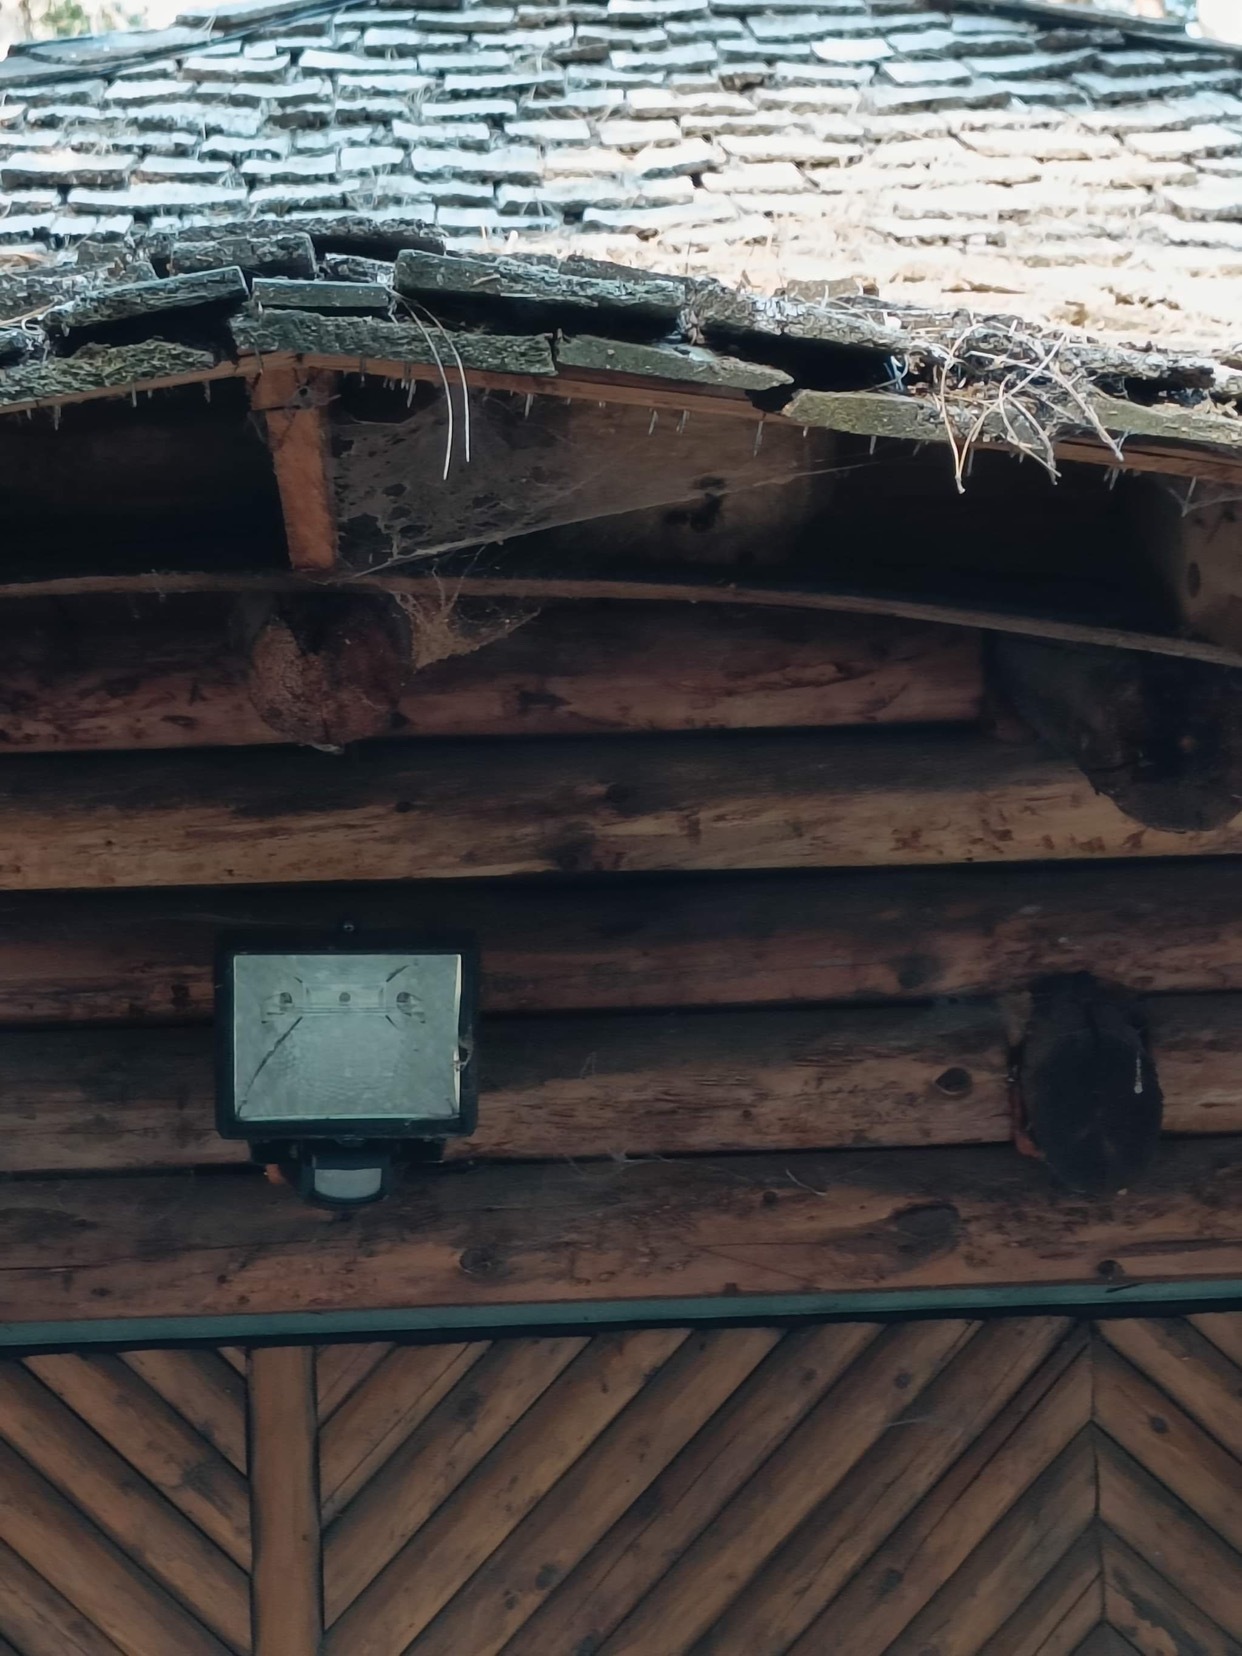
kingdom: Animalia
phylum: Arthropoda
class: Insecta
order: Hymenoptera
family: Vespidae
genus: Vespa
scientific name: Vespa velutina
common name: Asian hornet
